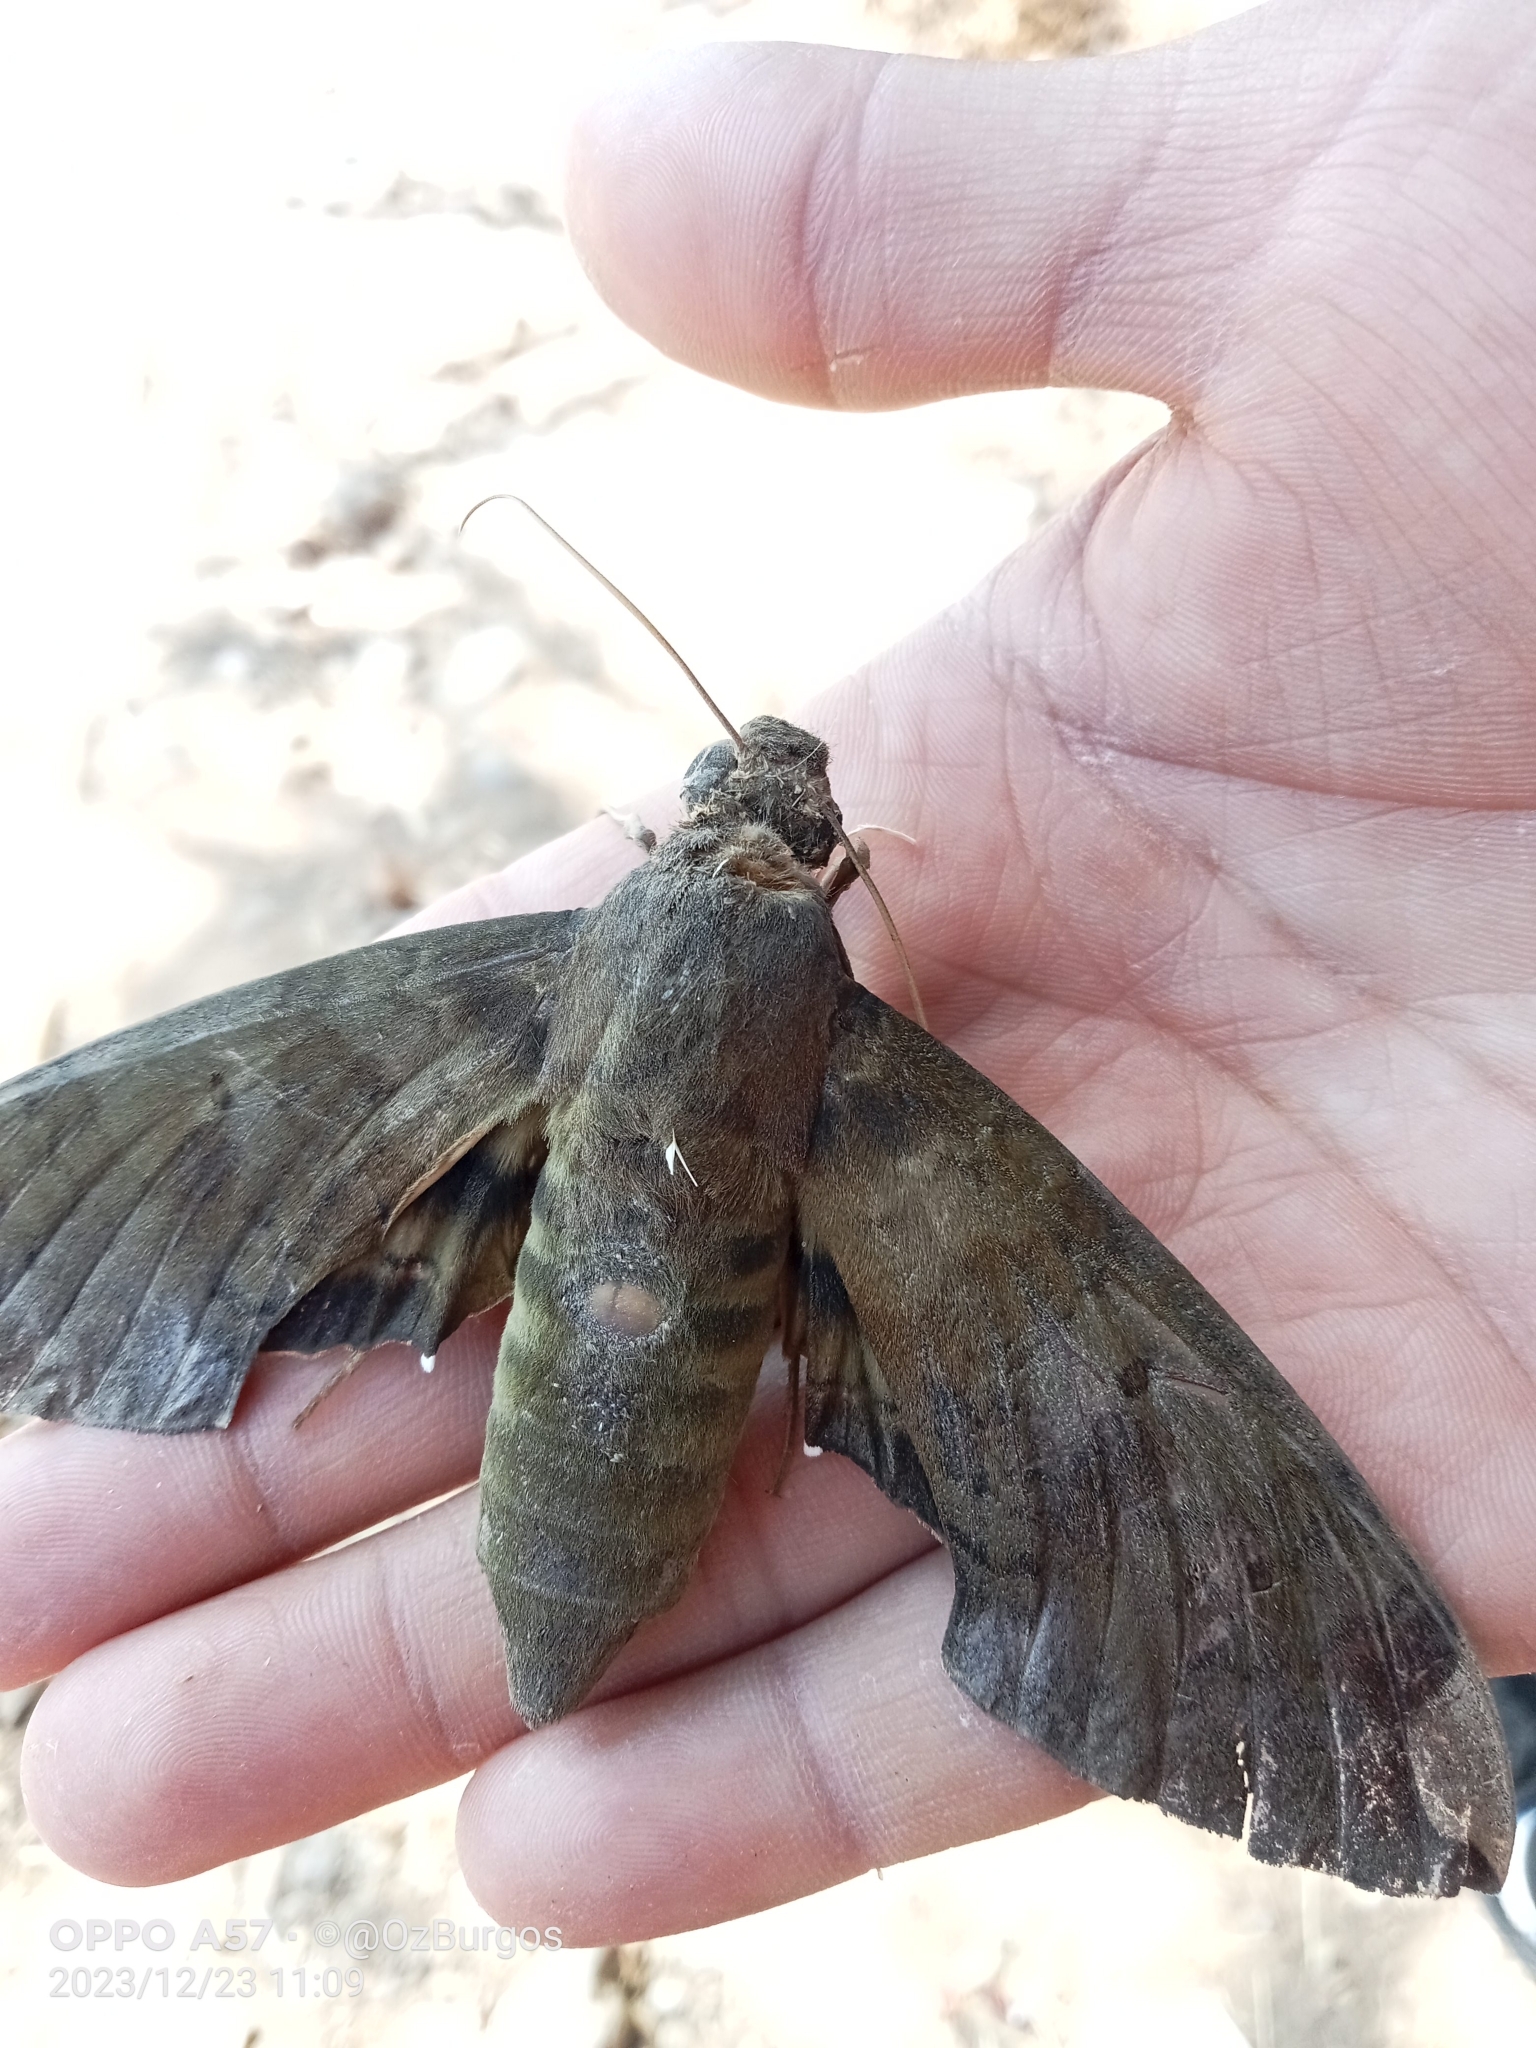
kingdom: Animalia
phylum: Arthropoda
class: Insecta
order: Lepidoptera
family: Sphingidae
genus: Pachylia
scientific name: Pachylia ficus
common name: Fig sphinx
